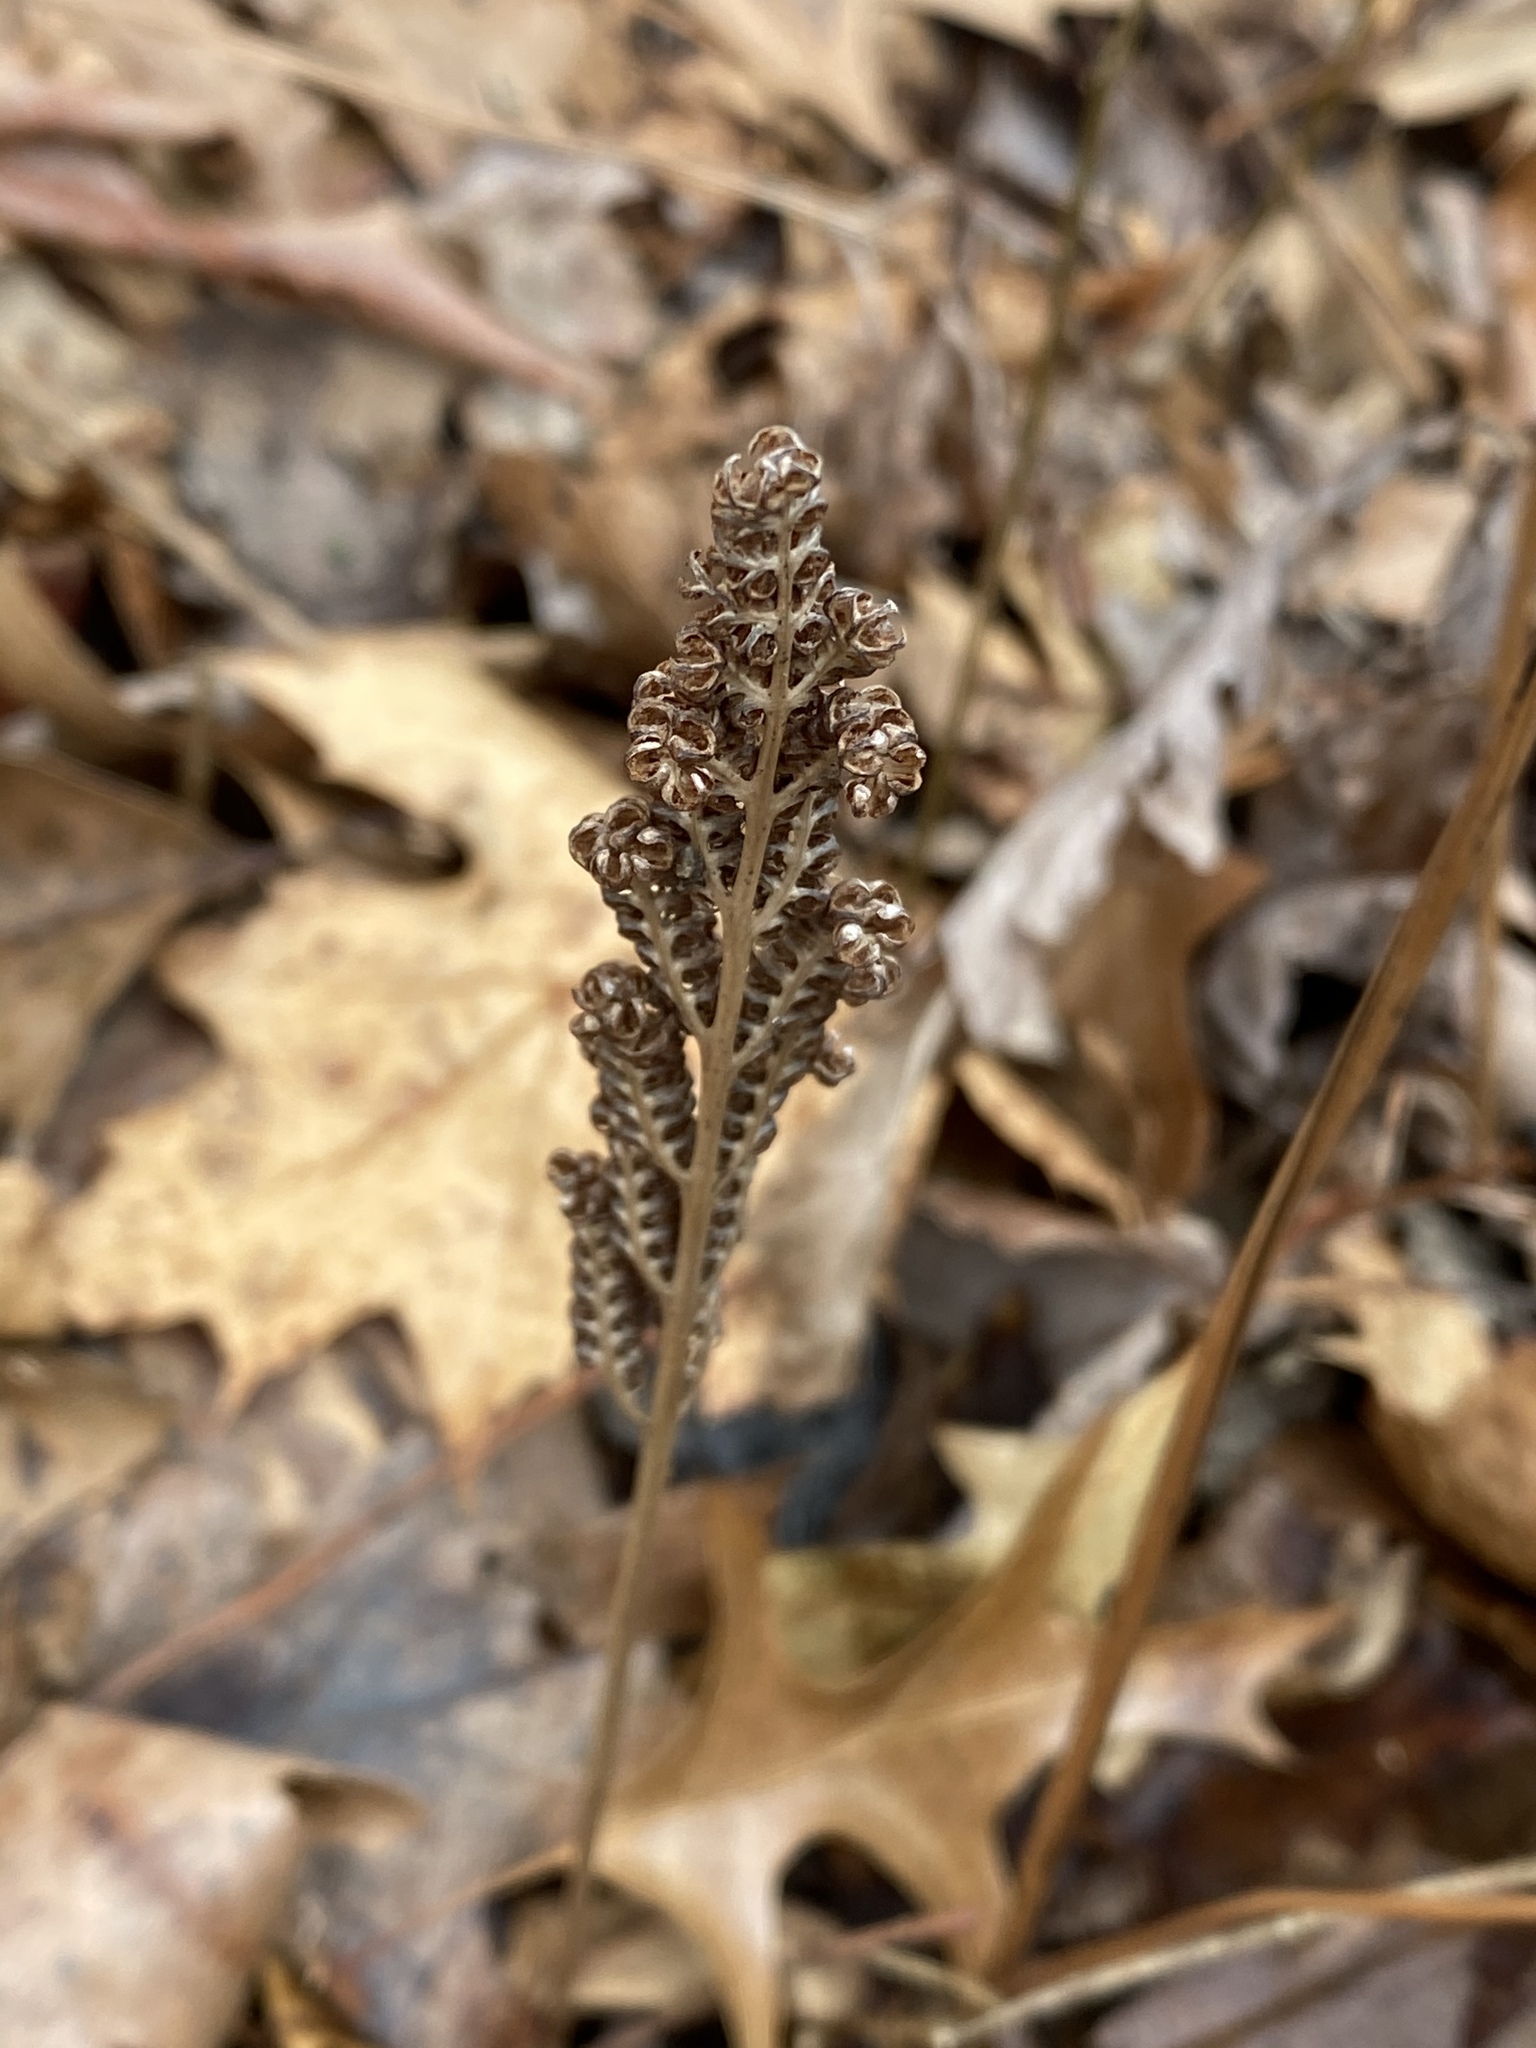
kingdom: Plantae
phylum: Tracheophyta
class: Polypodiopsida
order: Polypodiales
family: Onocleaceae
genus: Onoclea
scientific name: Onoclea sensibilis
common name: Sensitive fern
